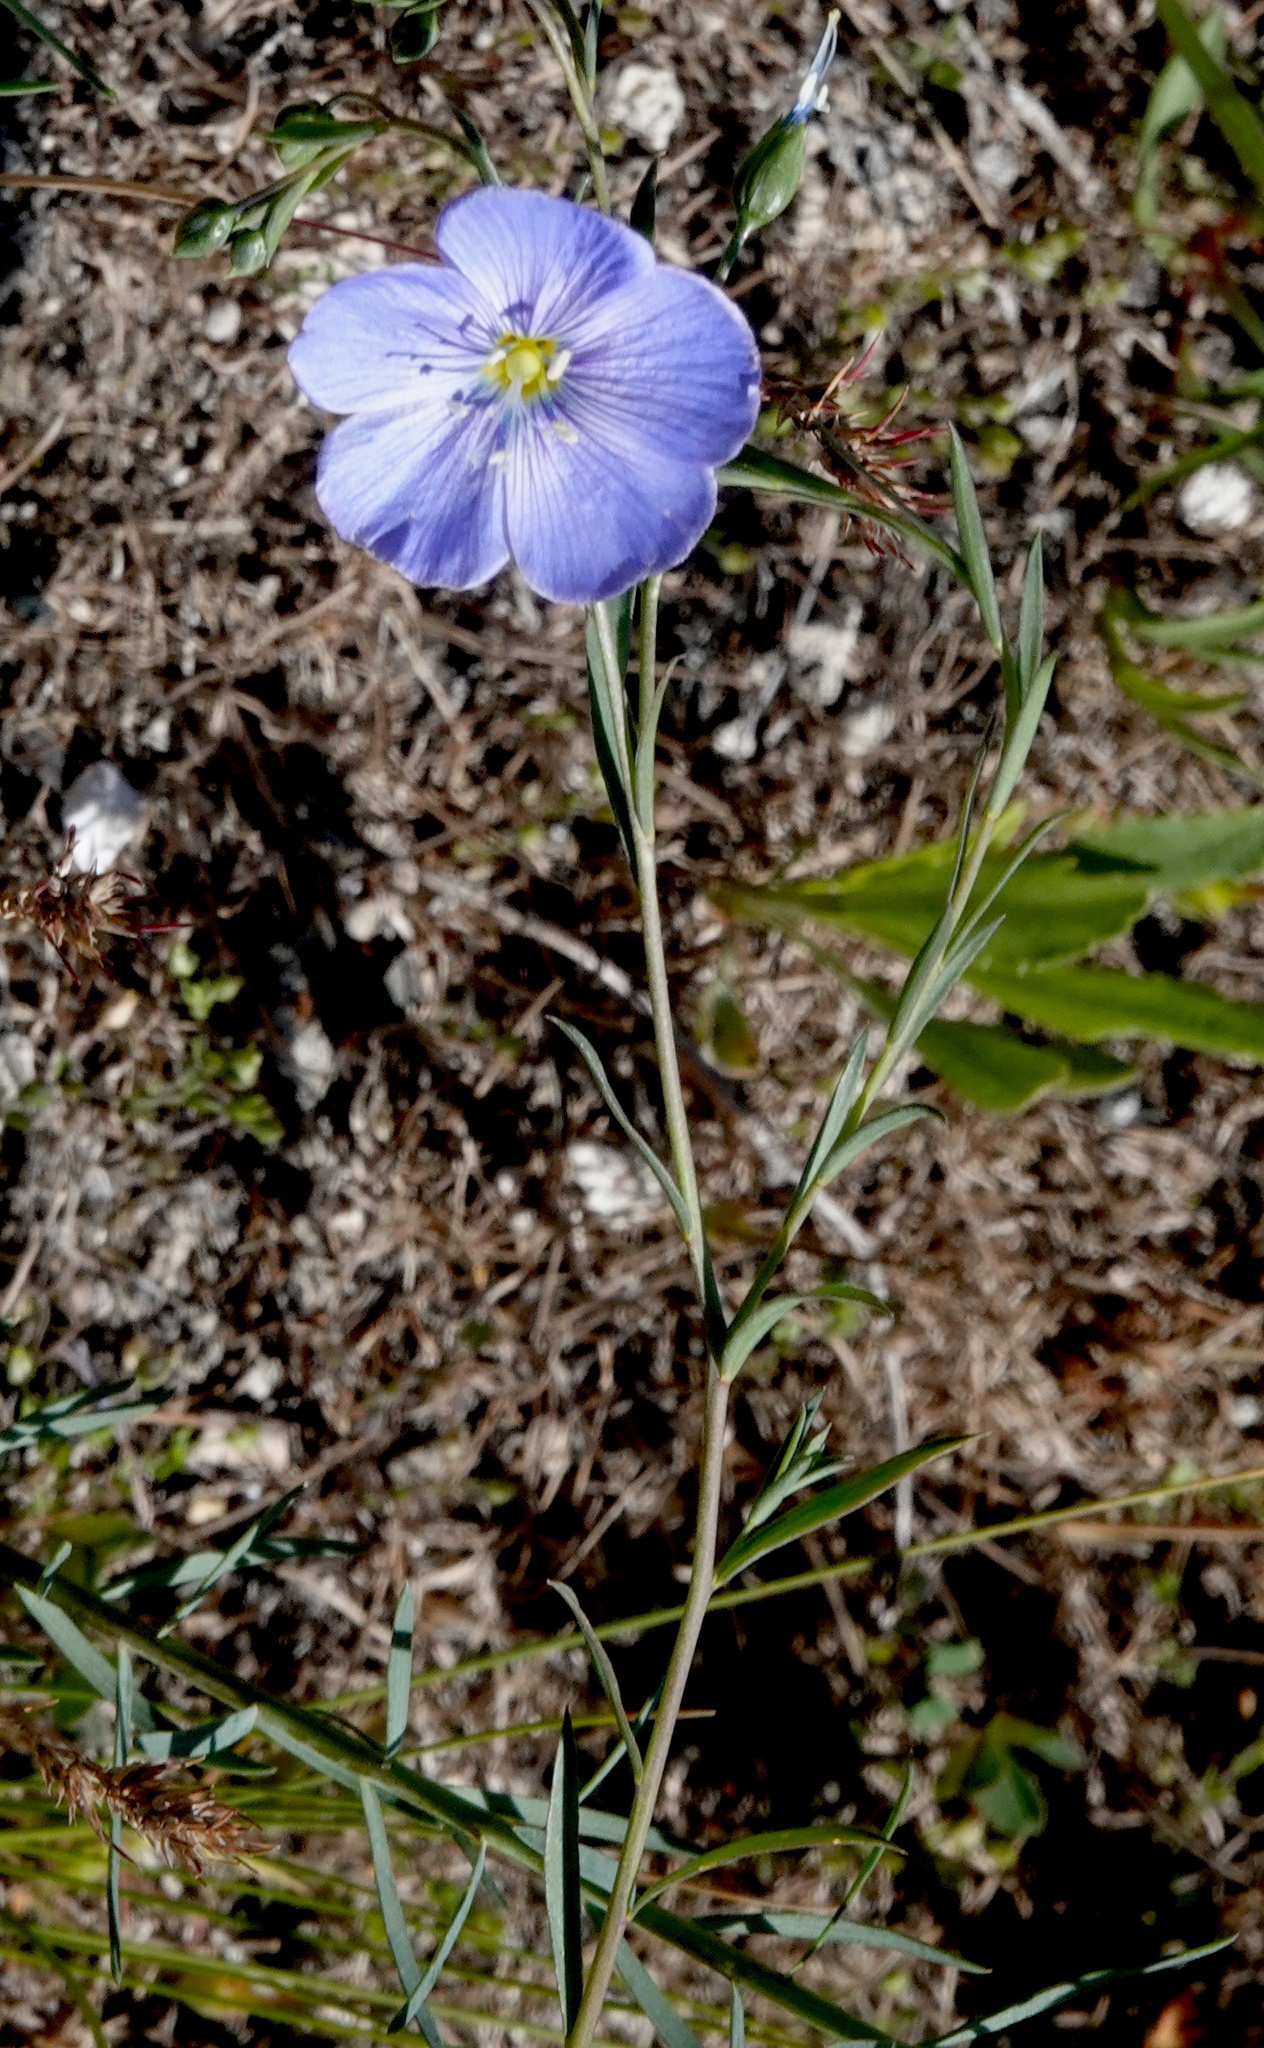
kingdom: Plantae
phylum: Tracheophyta
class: Magnoliopsida
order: Malpighiales
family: Linaceae
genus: Linum
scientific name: Linum lewisii
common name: Prairie flax
